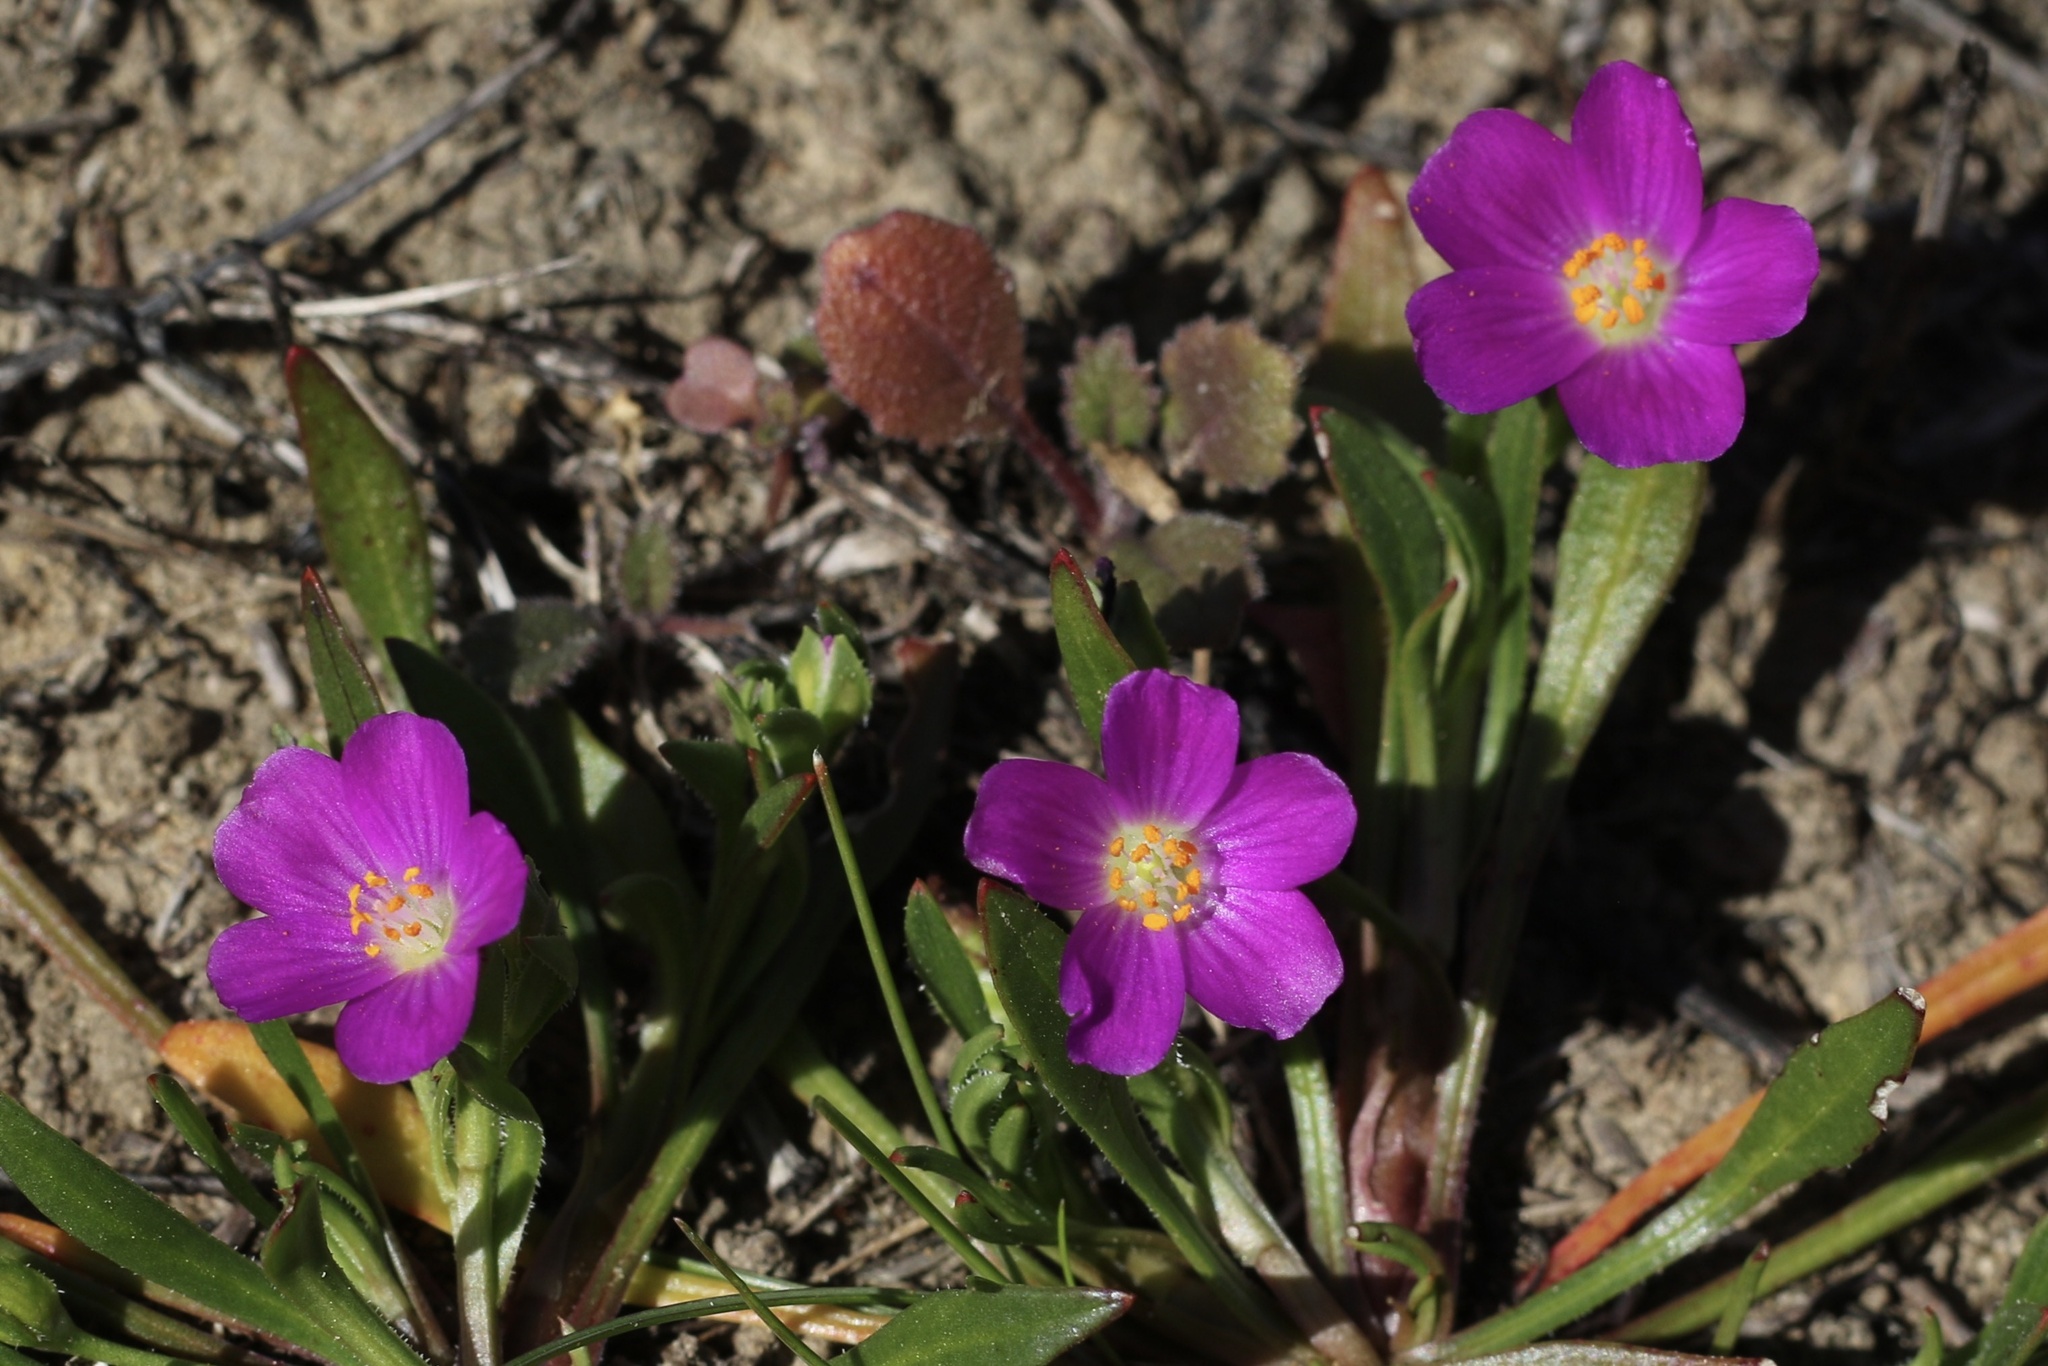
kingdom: Plantae
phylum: Tracheophyta
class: Magnoliopsida
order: Caryophyllales
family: Montiaceae
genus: Calandrinia
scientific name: Calandrinia menziesii
